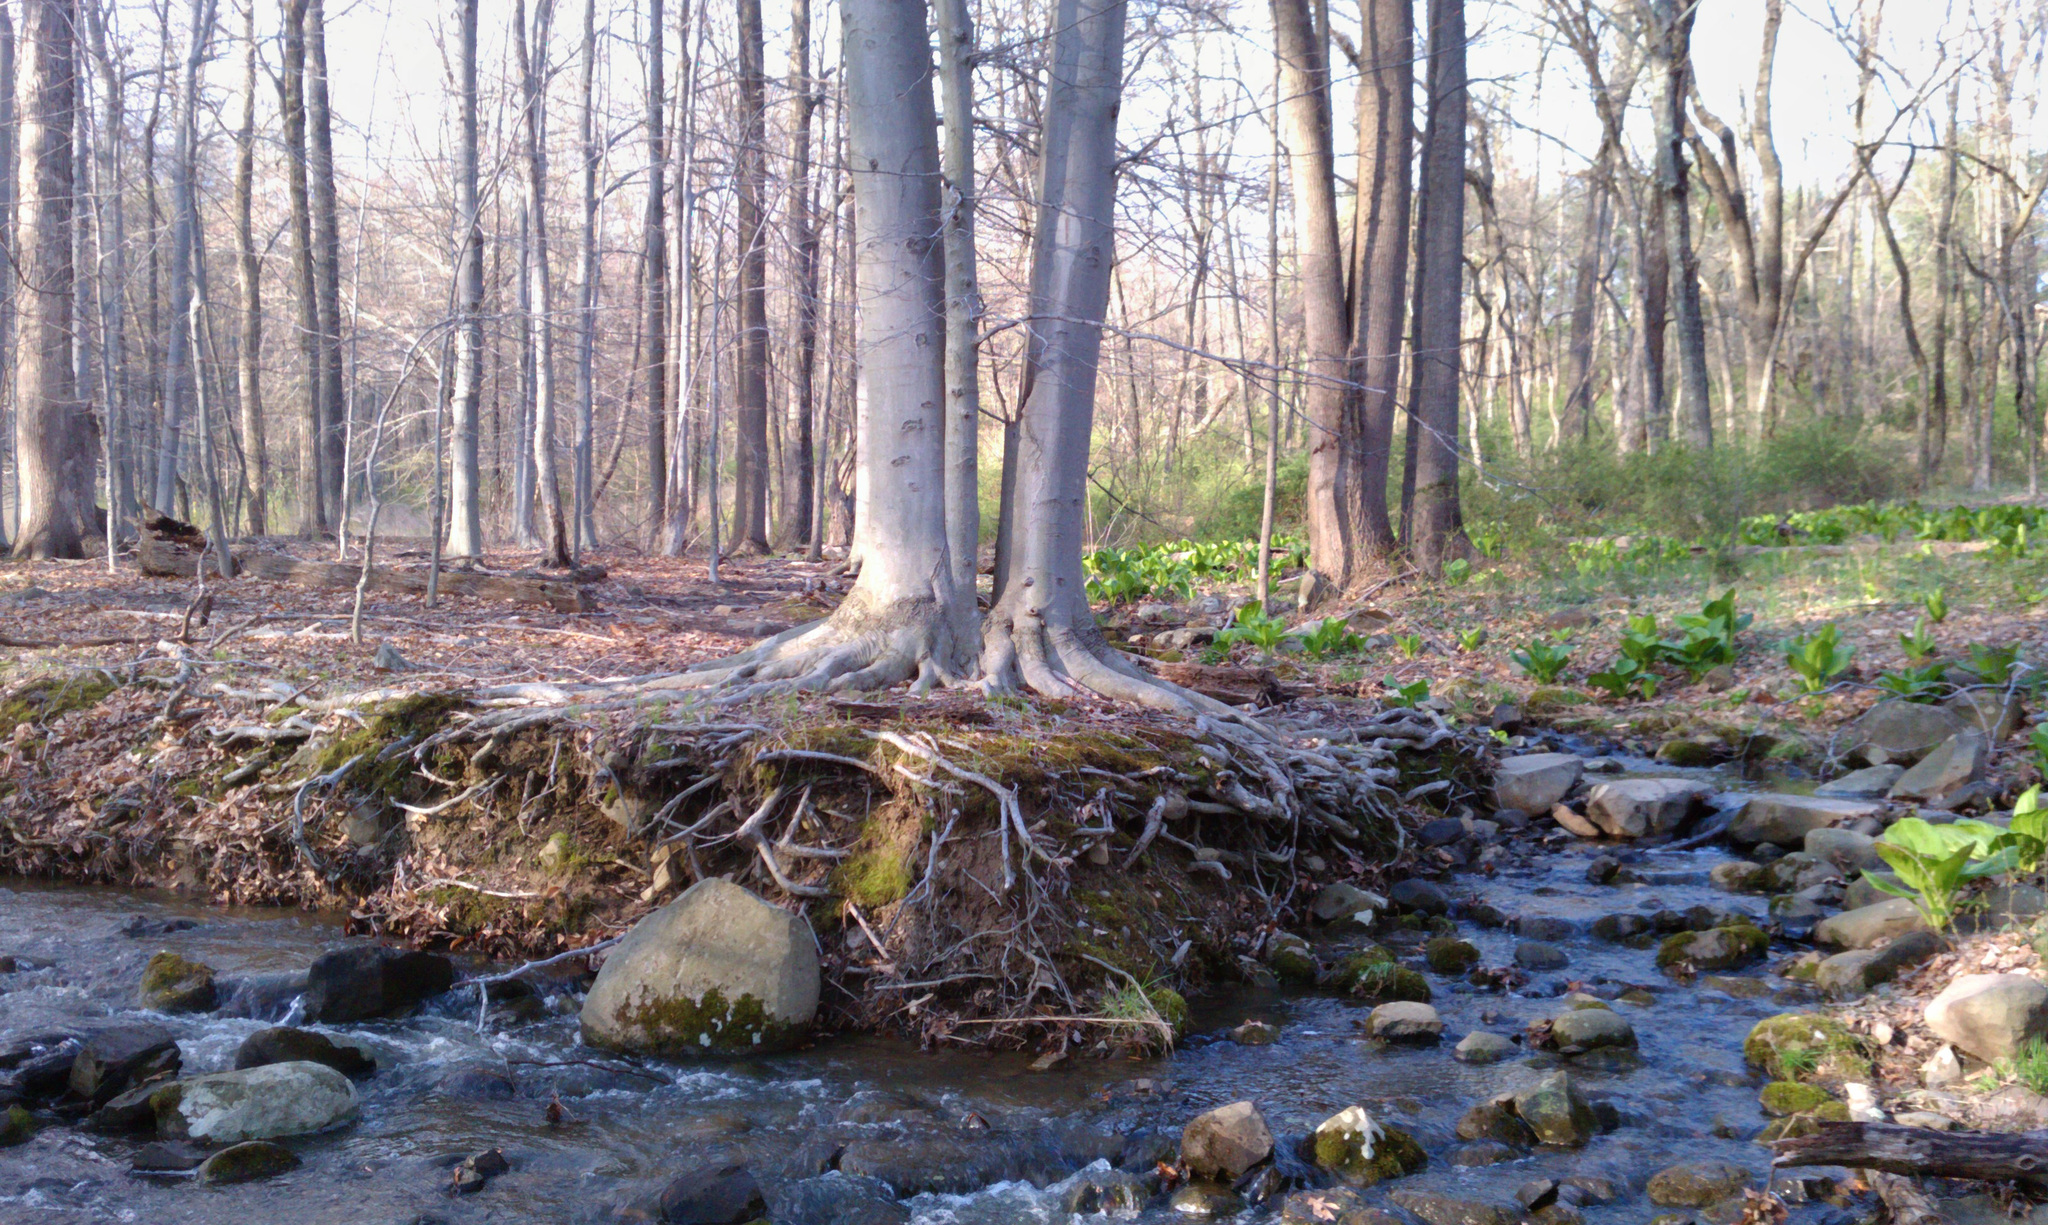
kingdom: Plantae
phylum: Tracheophyta
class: Magnoliopsida
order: Fagales
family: Fagaceae
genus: Fagus
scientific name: Fagus grandifolia
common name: American beech
